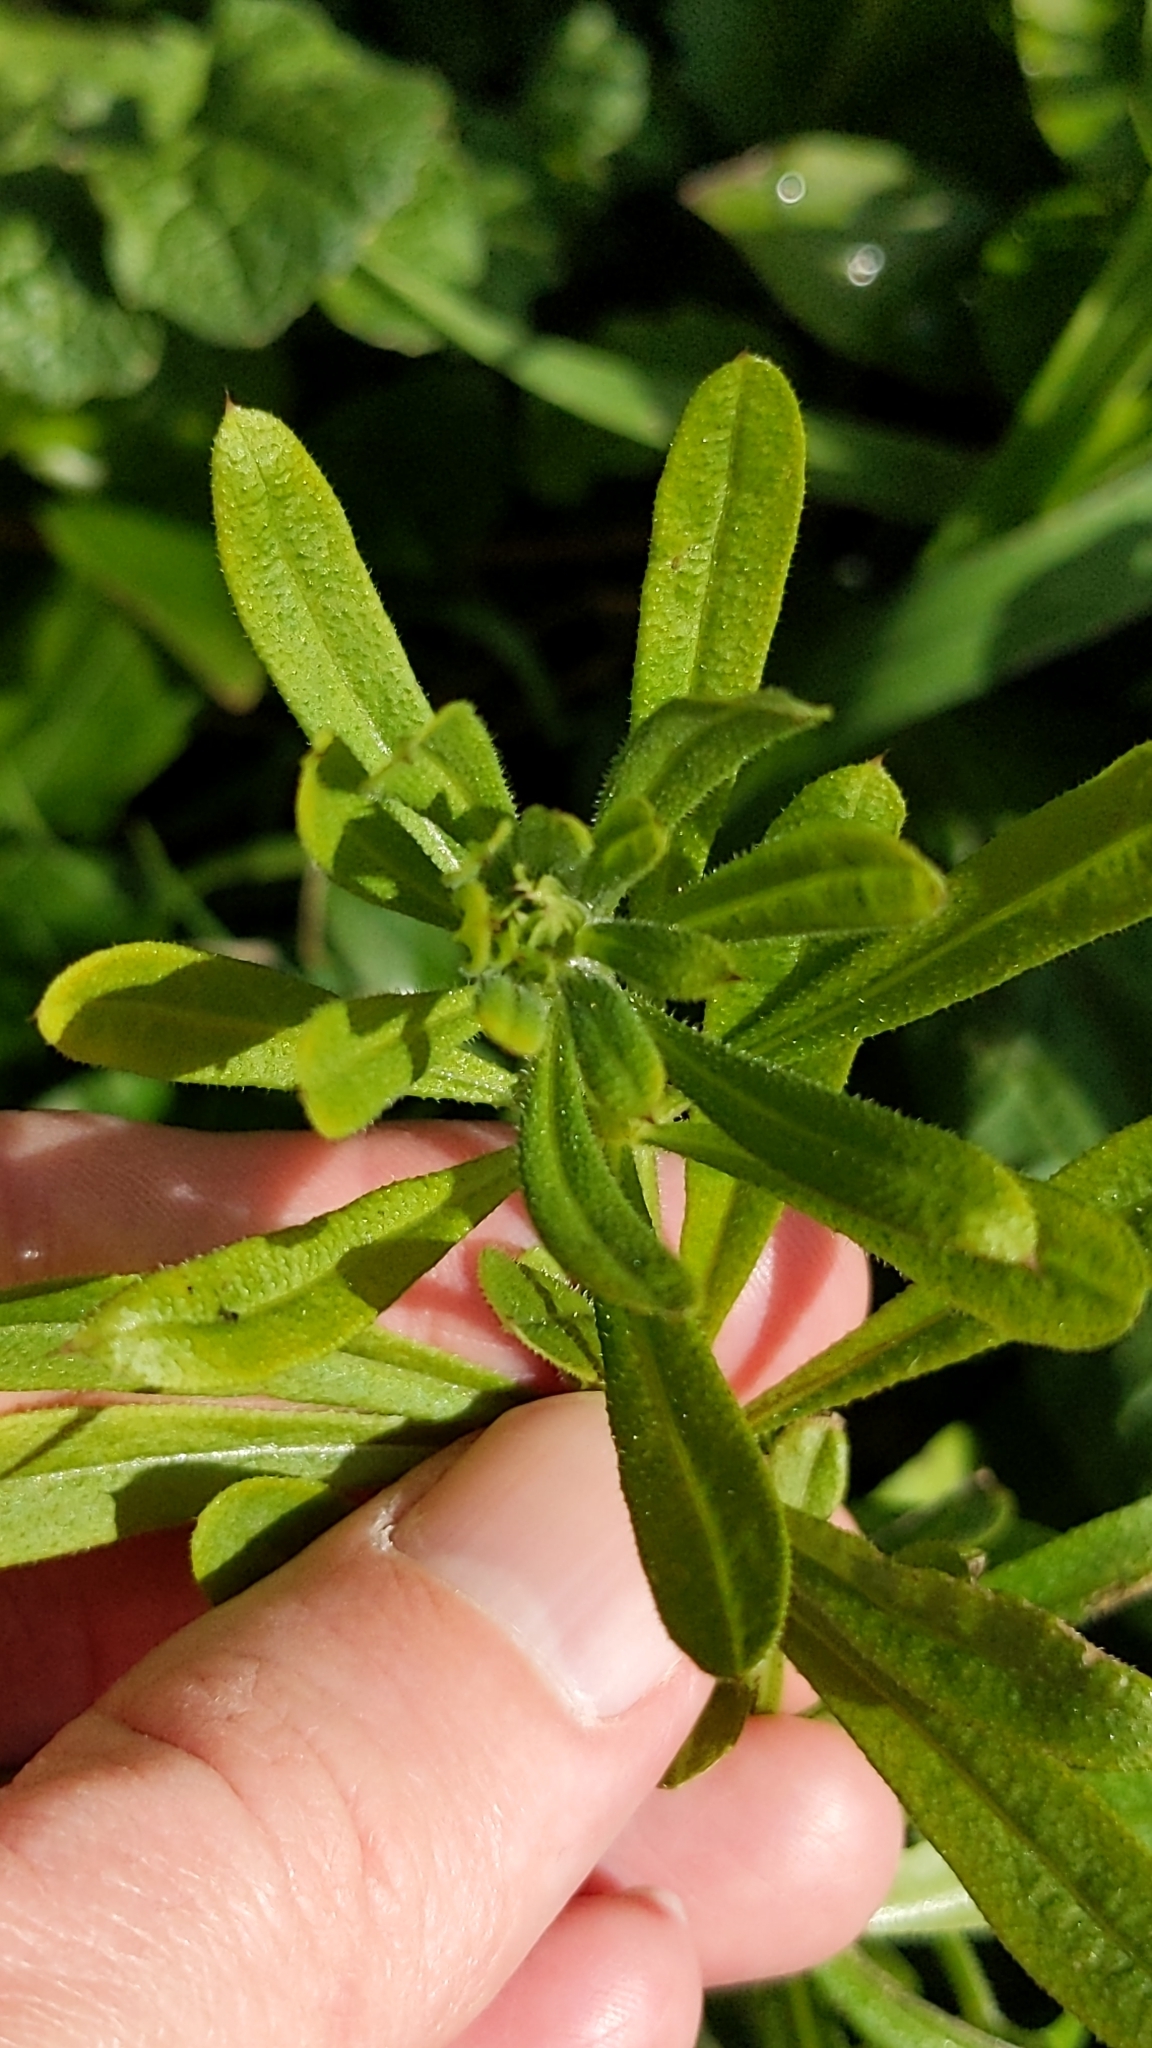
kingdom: Plantae
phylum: Tracheophyta
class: Magnoliopsida
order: Gentianales
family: Rubiaceae
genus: Galium
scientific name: Galium aparine
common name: Cleavers
